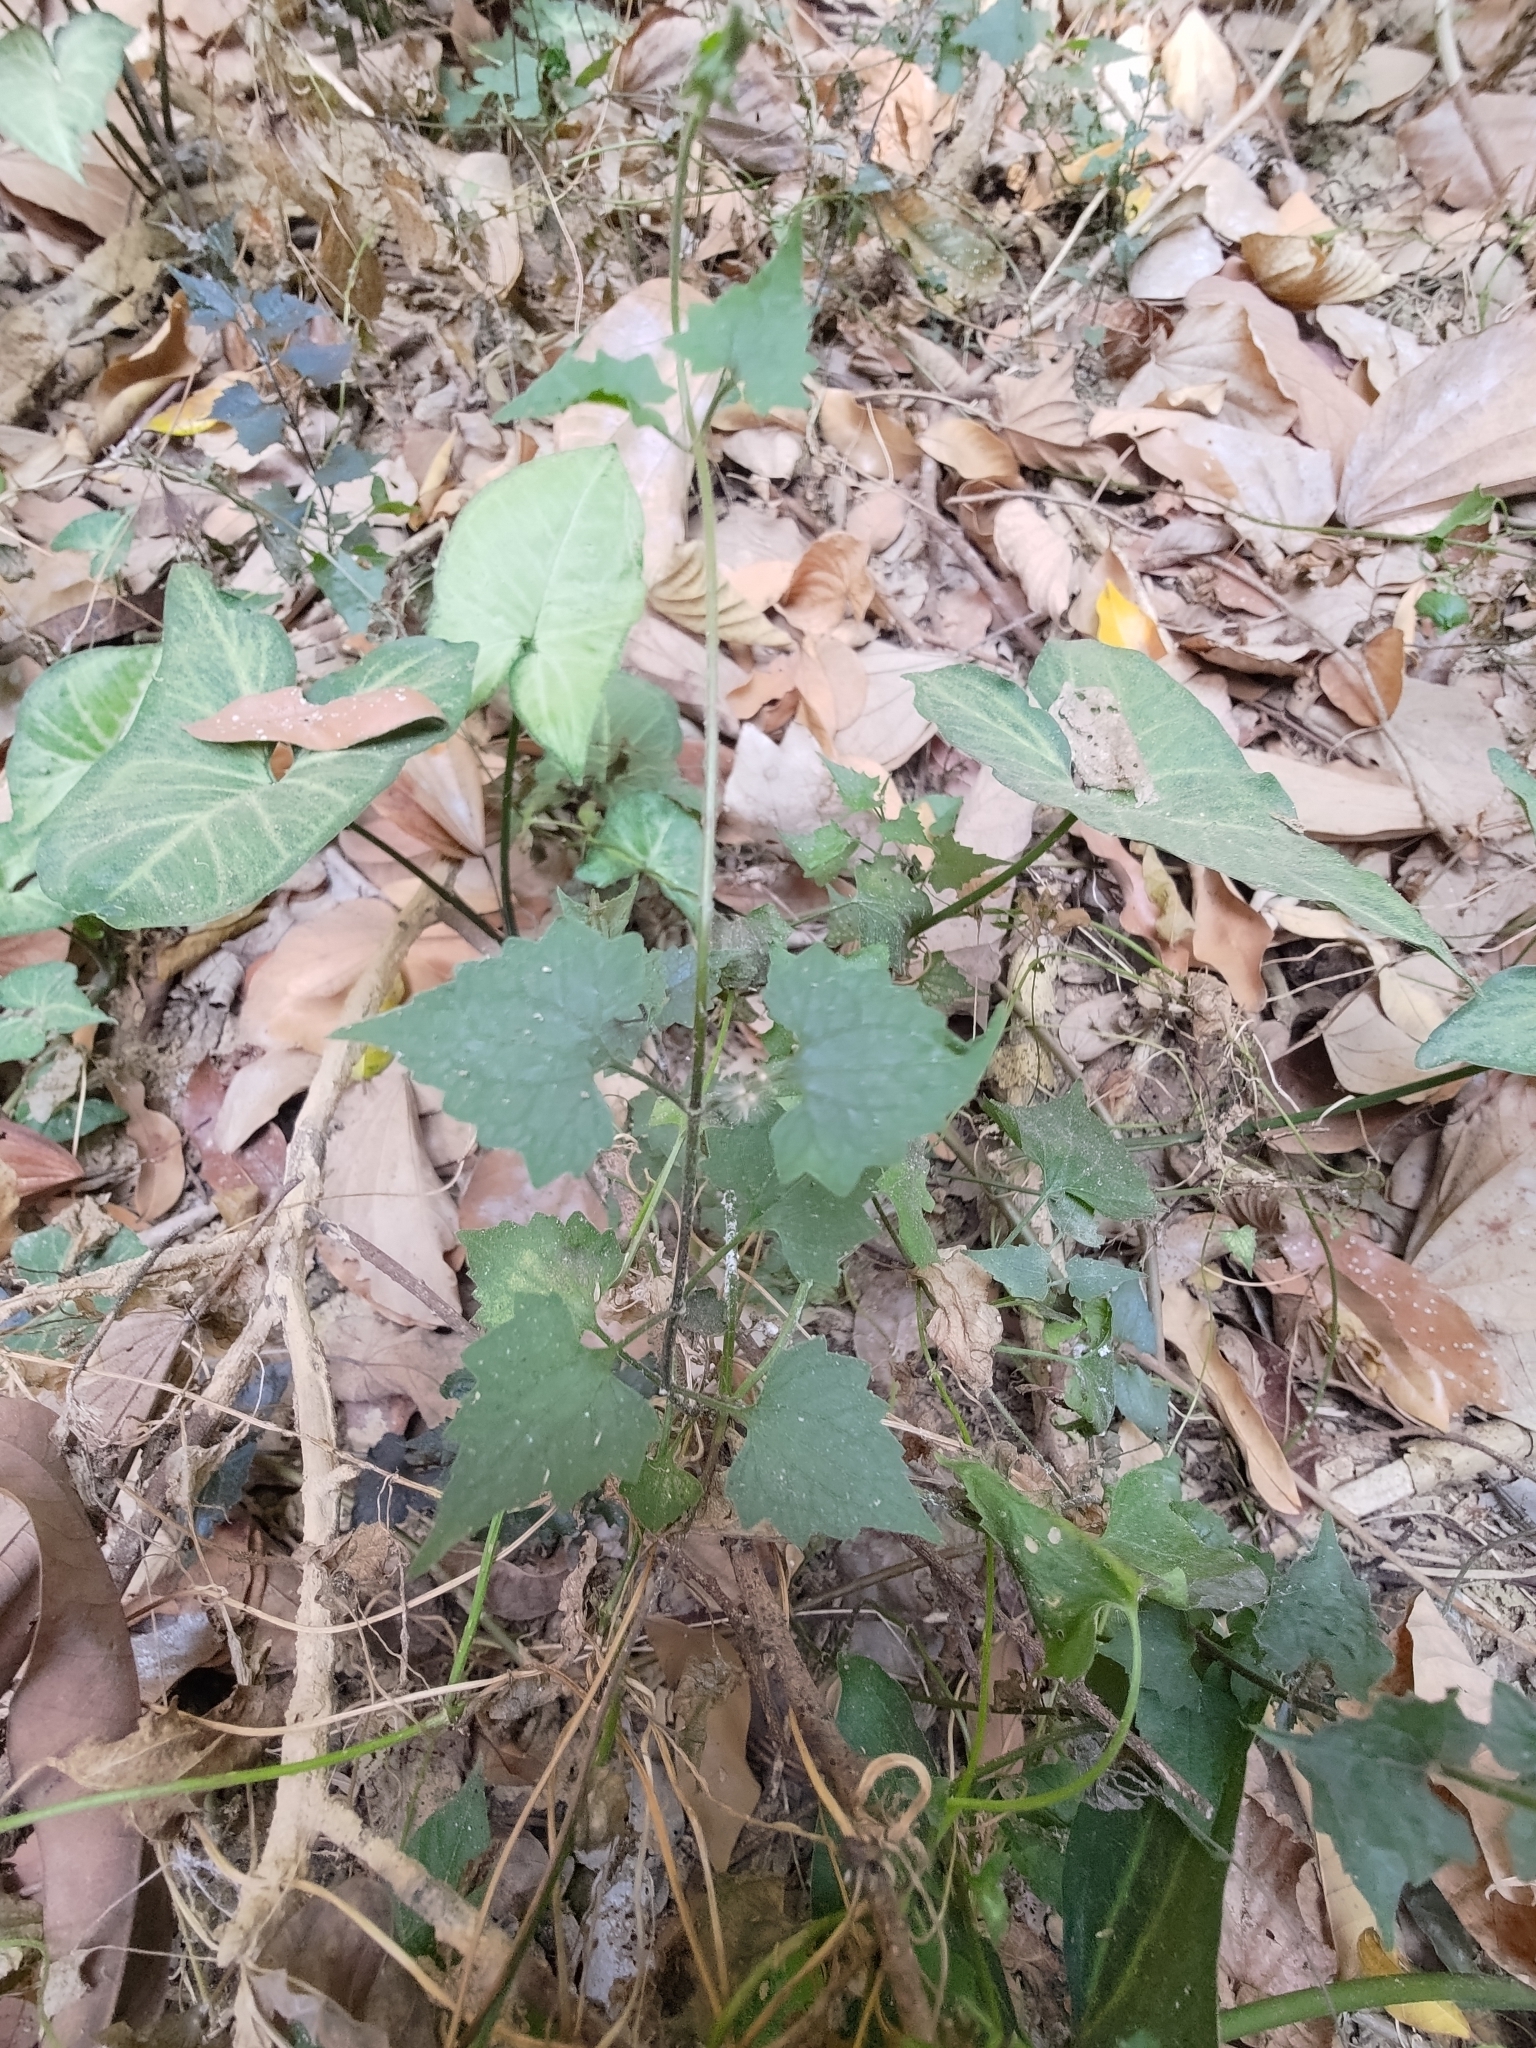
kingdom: Plantae
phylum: Tracheophyta
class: Magnoliopsida
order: Asterales
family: Asteraceae
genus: Mikania
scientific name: Mikania micrantha
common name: Mile-a-minute
